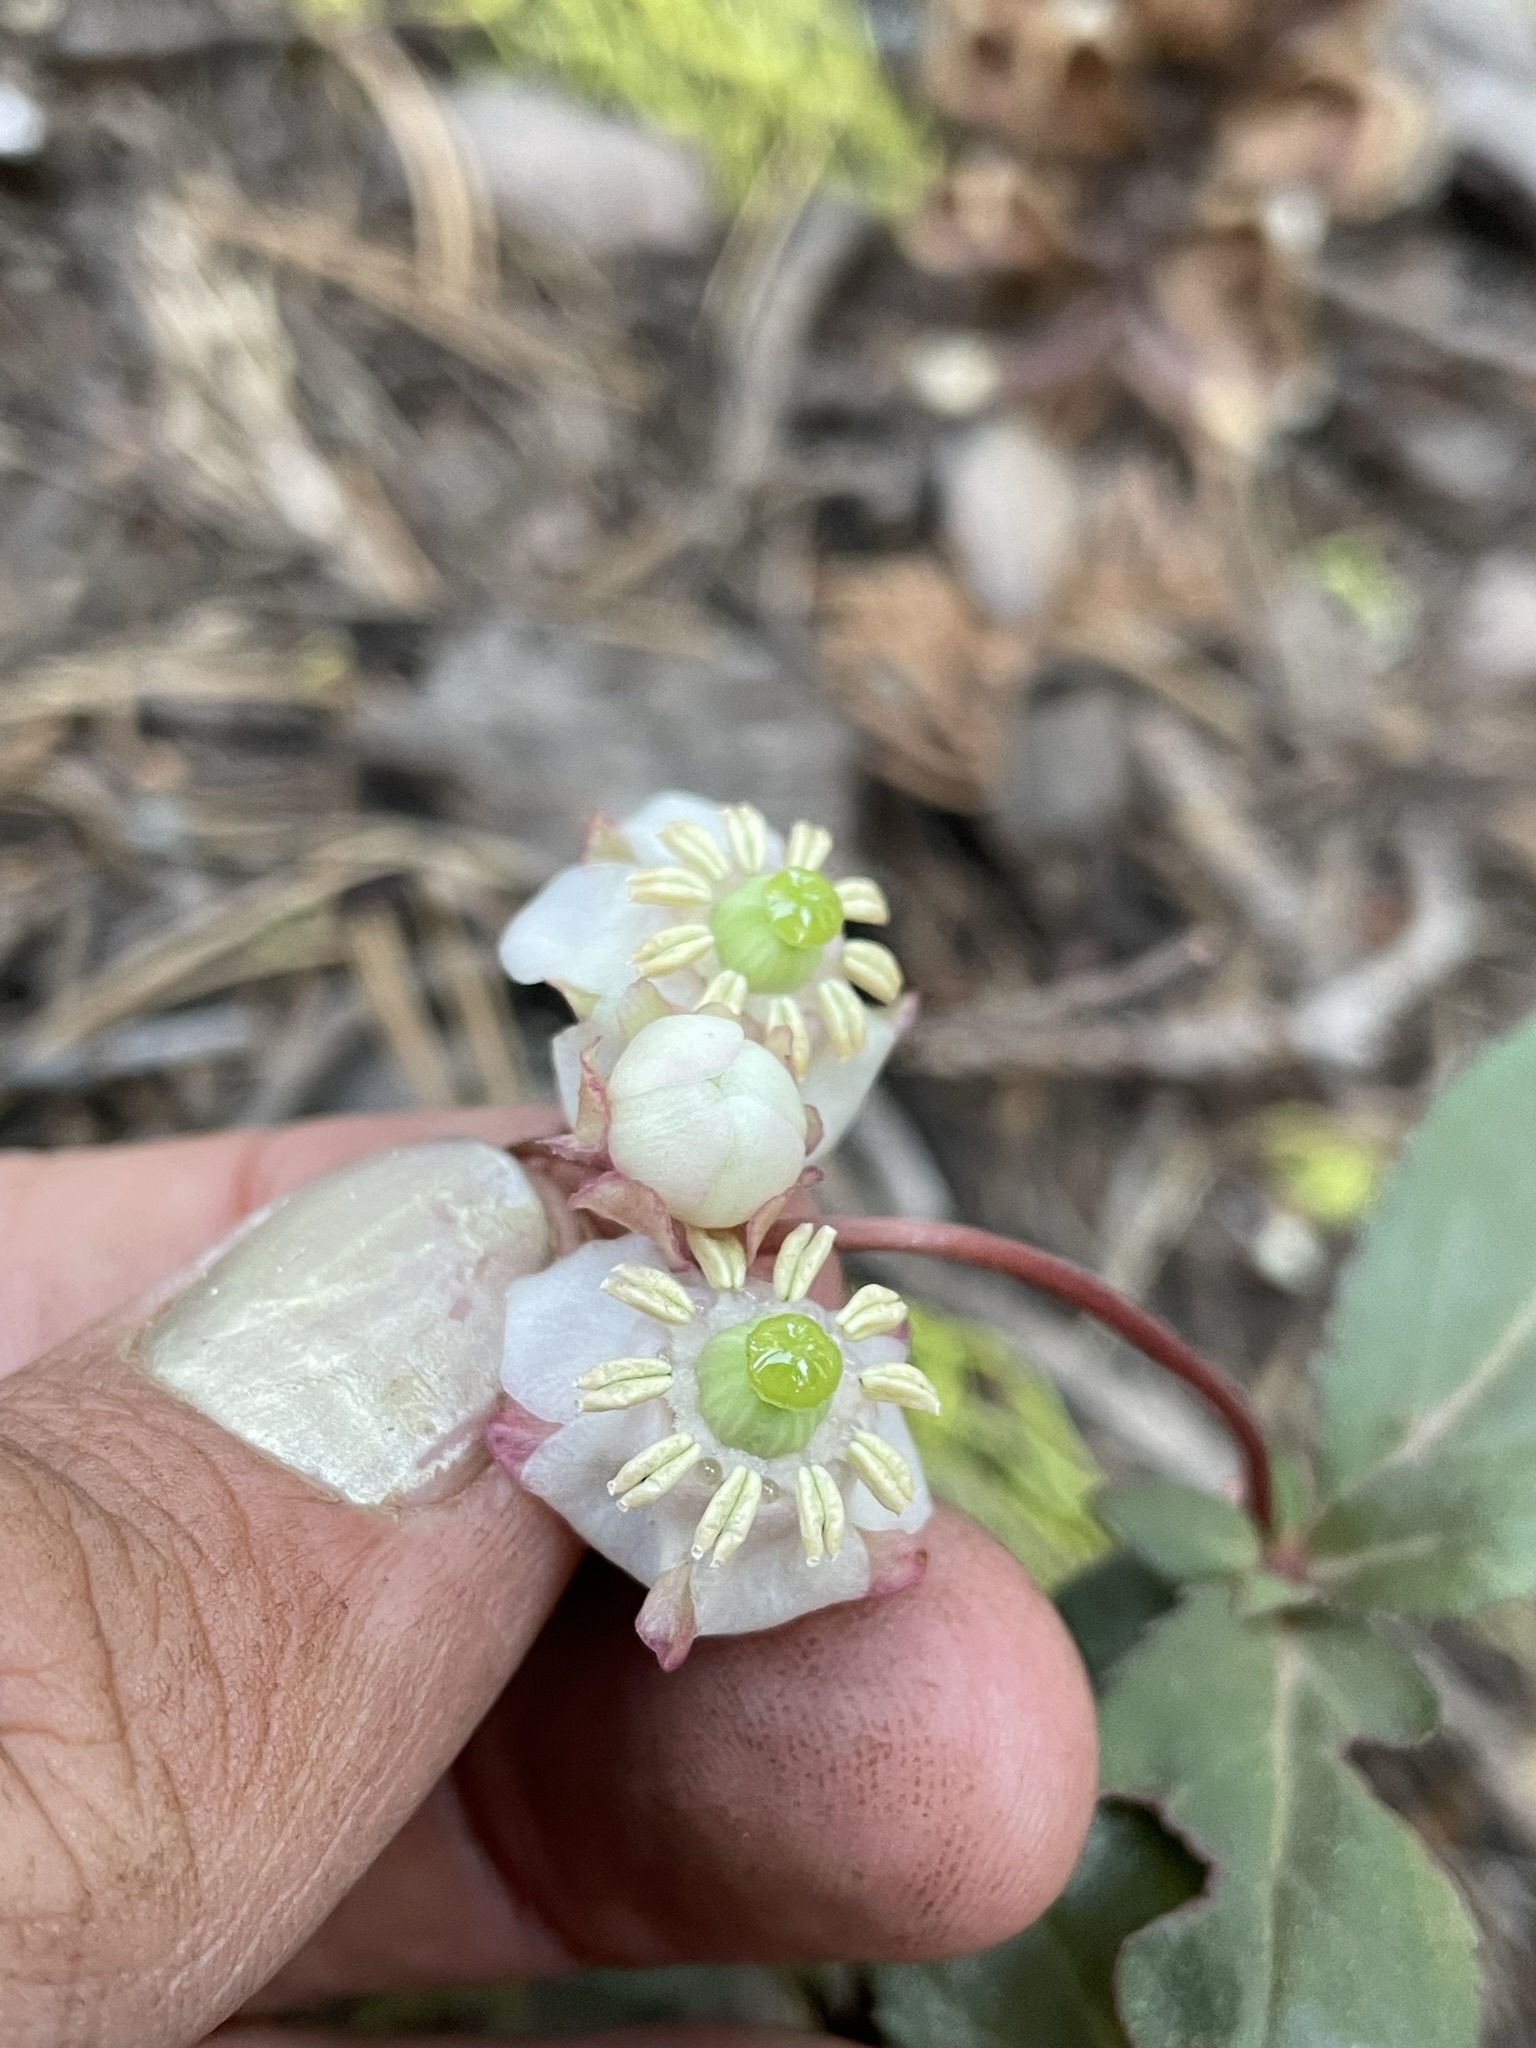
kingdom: Plantae
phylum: Tracheophyta
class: Magnoliopsida
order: Ericales
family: Ericaceae
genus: Chimaphila
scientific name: Chimaphila menziesii
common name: Menzies' pipsissewa
